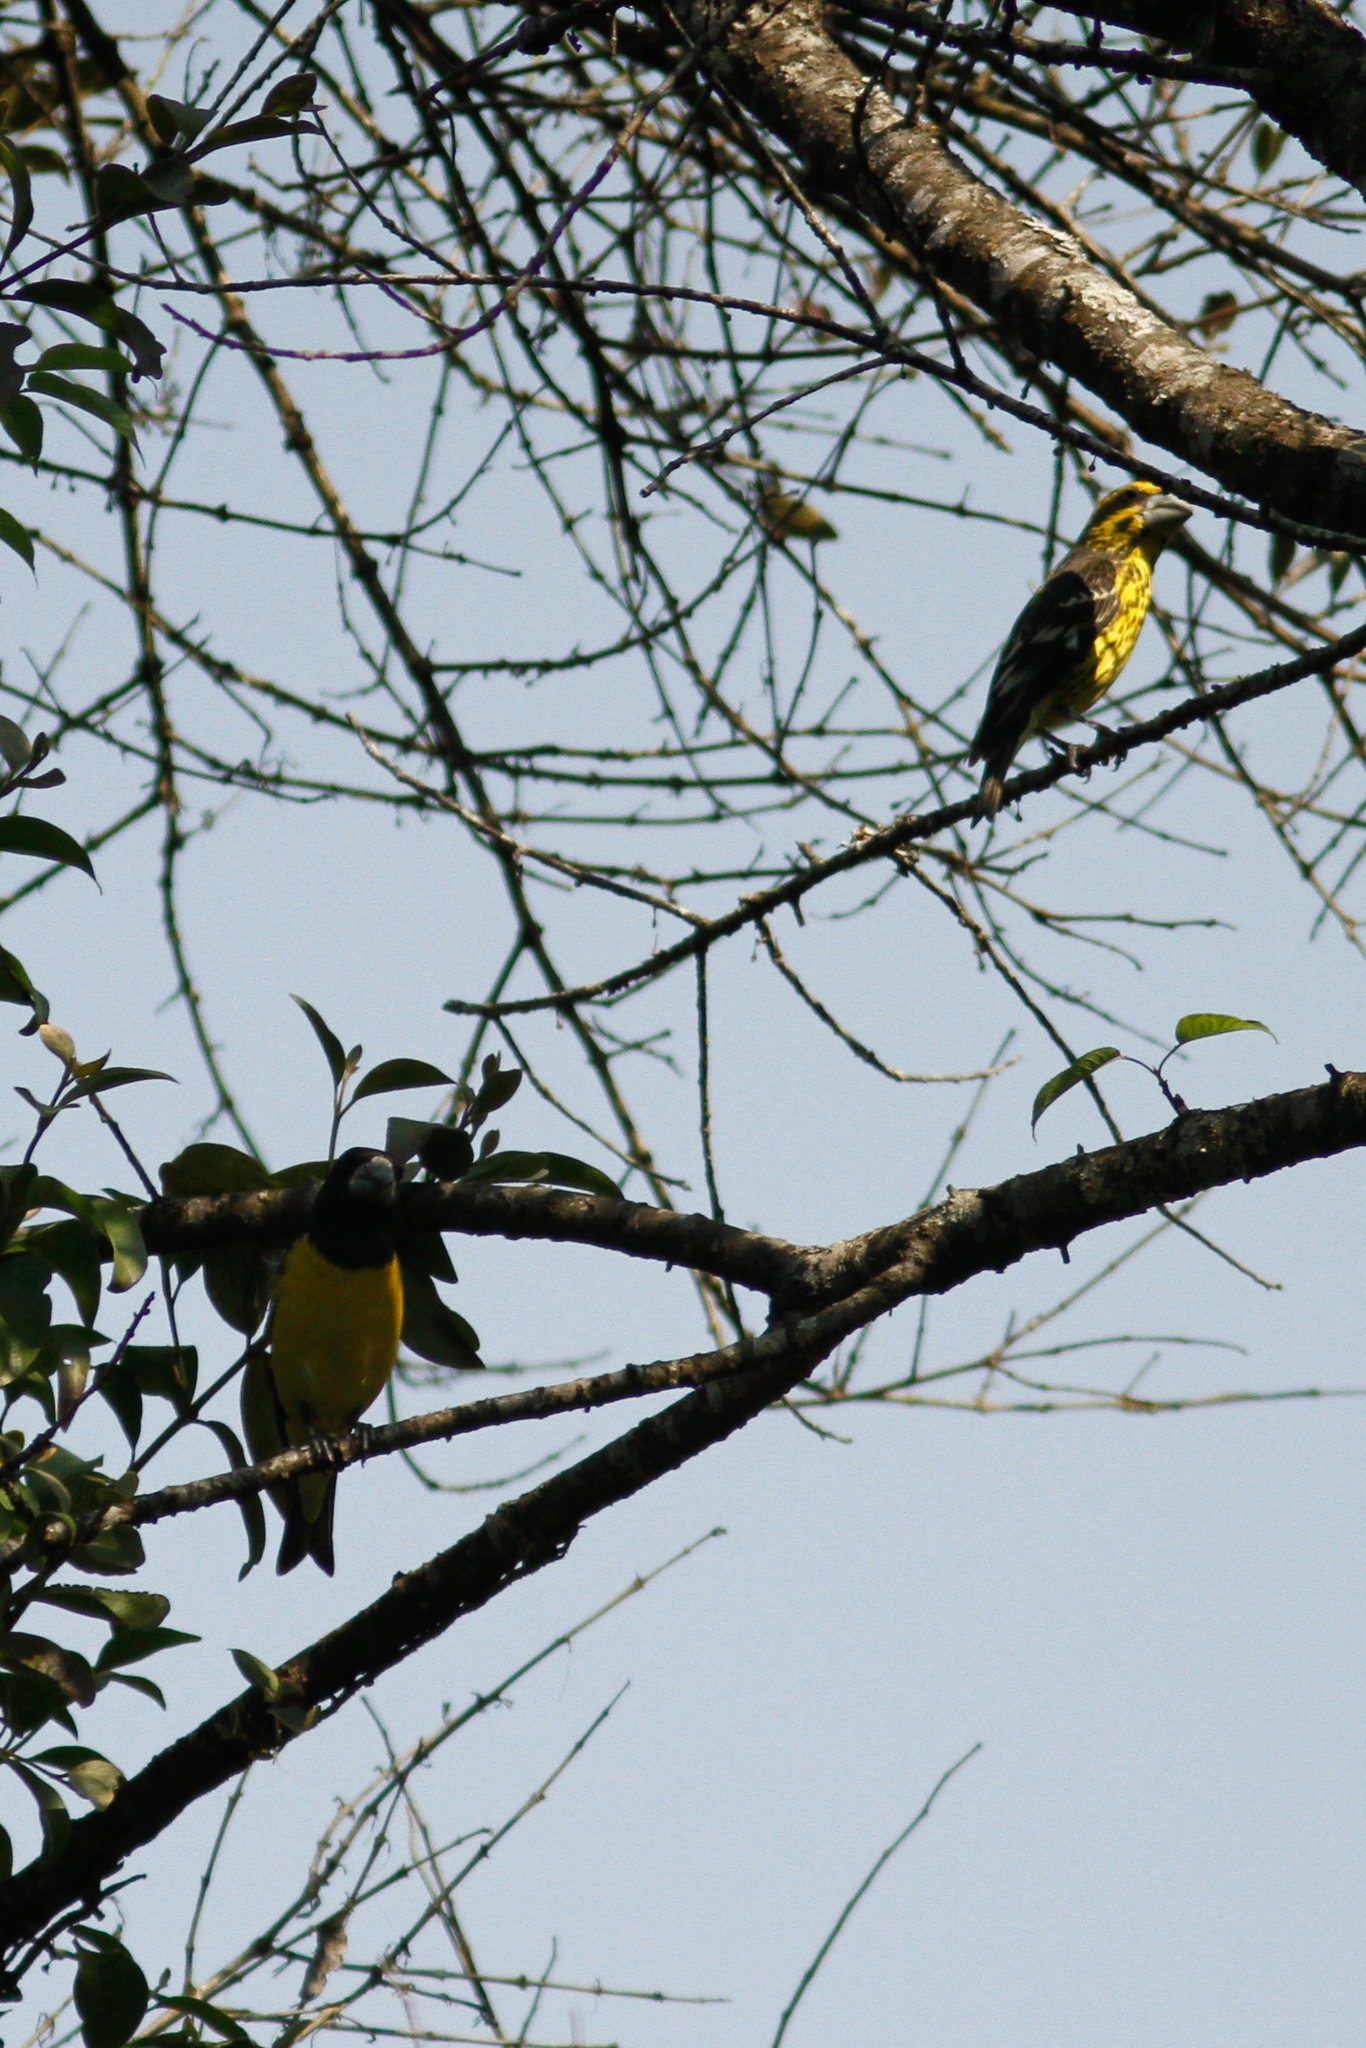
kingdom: Animalia
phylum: Chordata
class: Aves
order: Passeriformes
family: Fringillidae
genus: Mycerobas
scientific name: Mycerobas melanozanthos
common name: Spot-winged grosbeak
